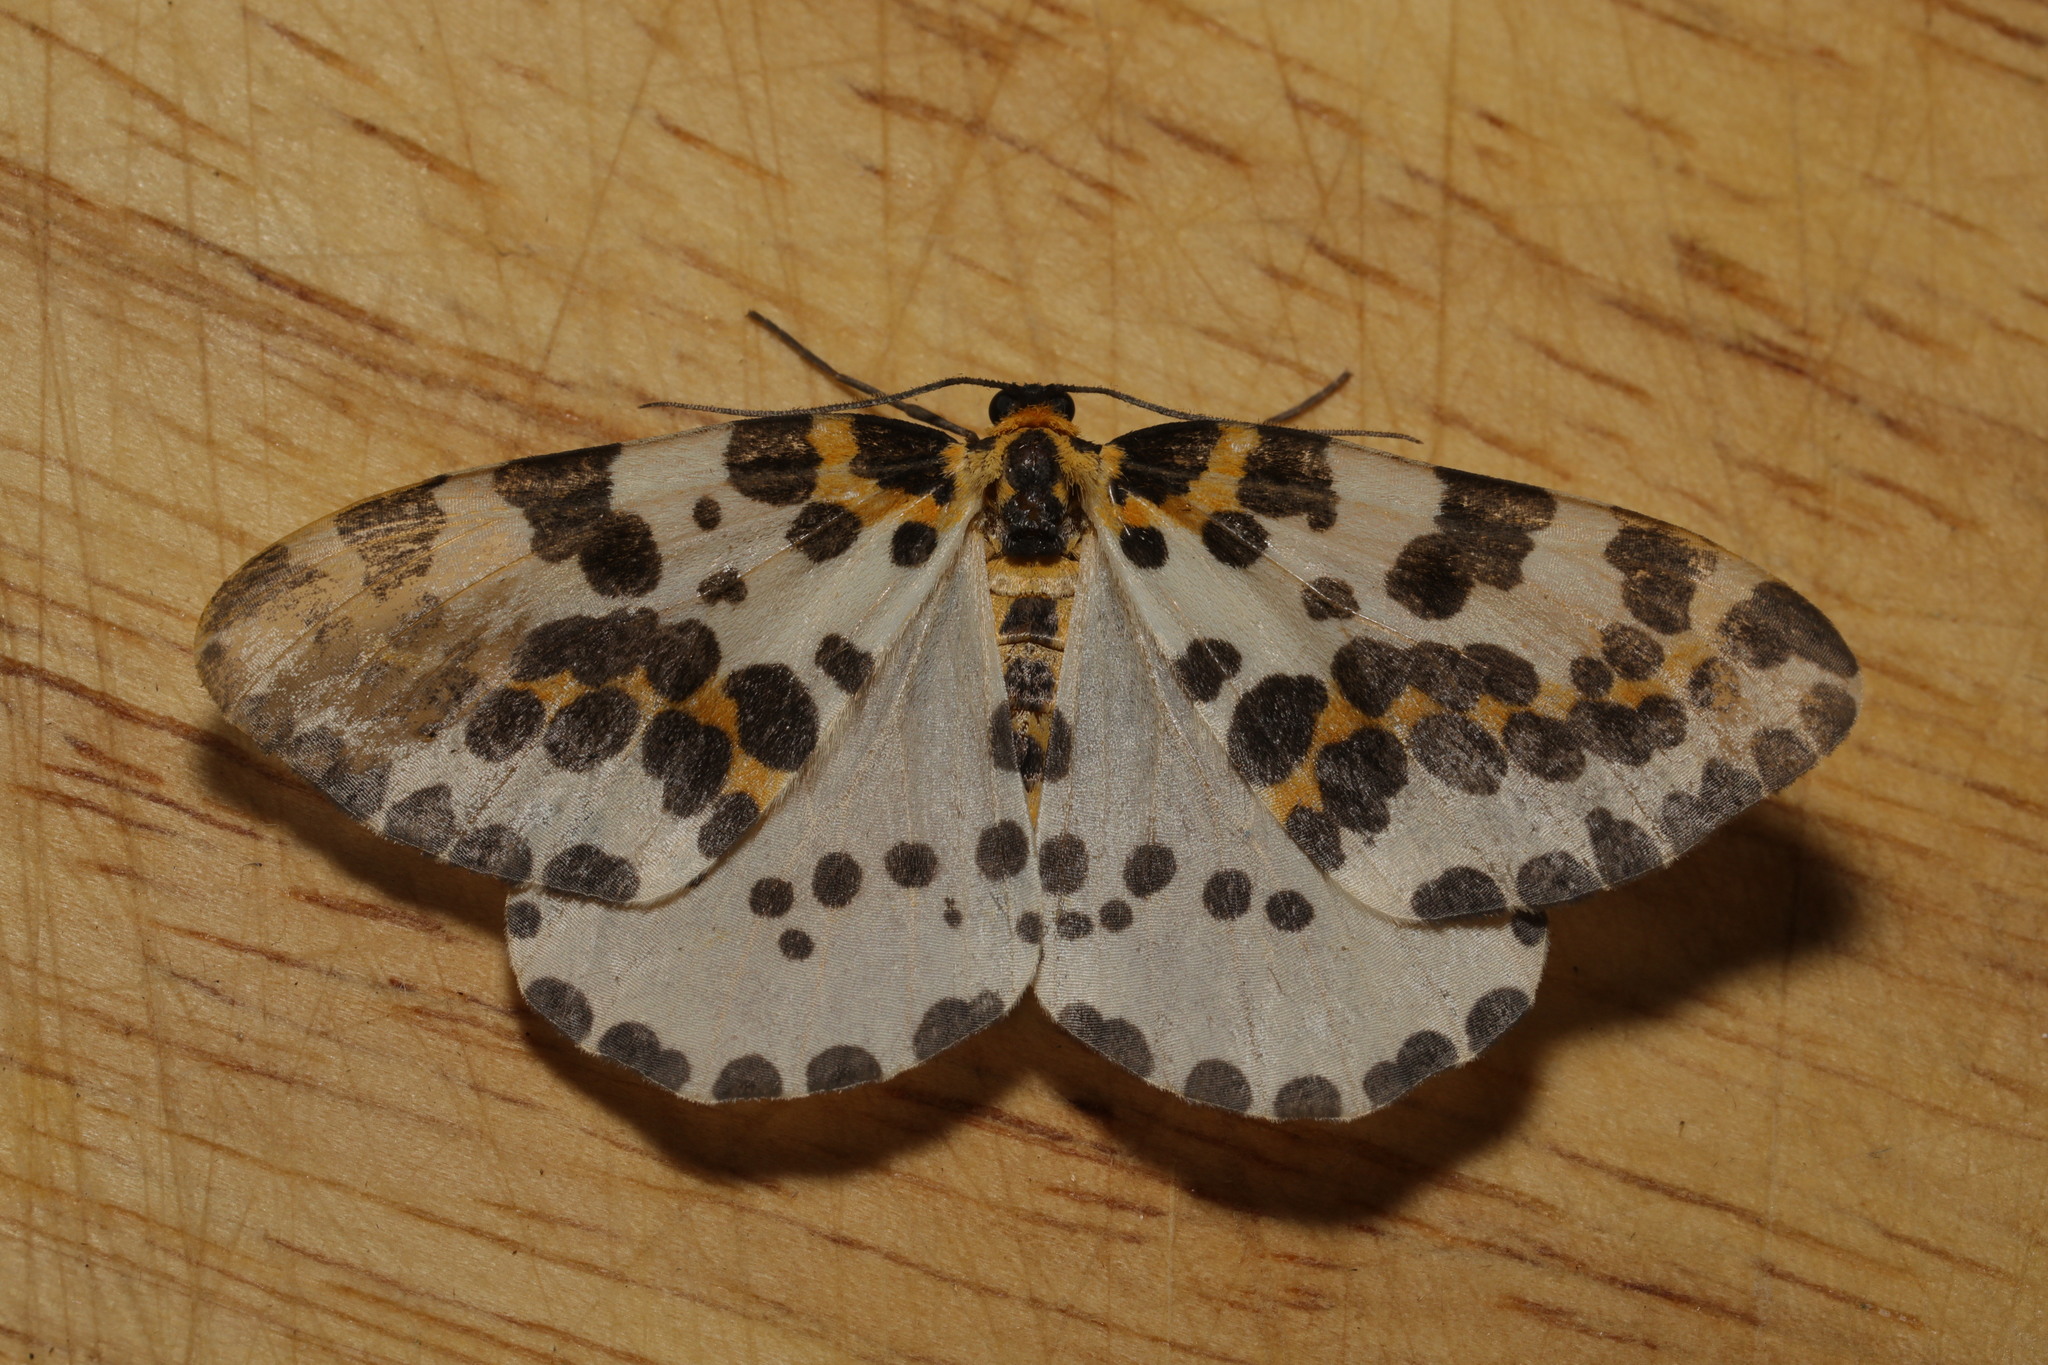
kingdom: Animalia
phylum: Arthropoda
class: Insecta
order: Lepidoptera
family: Geometridae
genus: Abraxas
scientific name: Abraxas grossulariata
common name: Magpie
